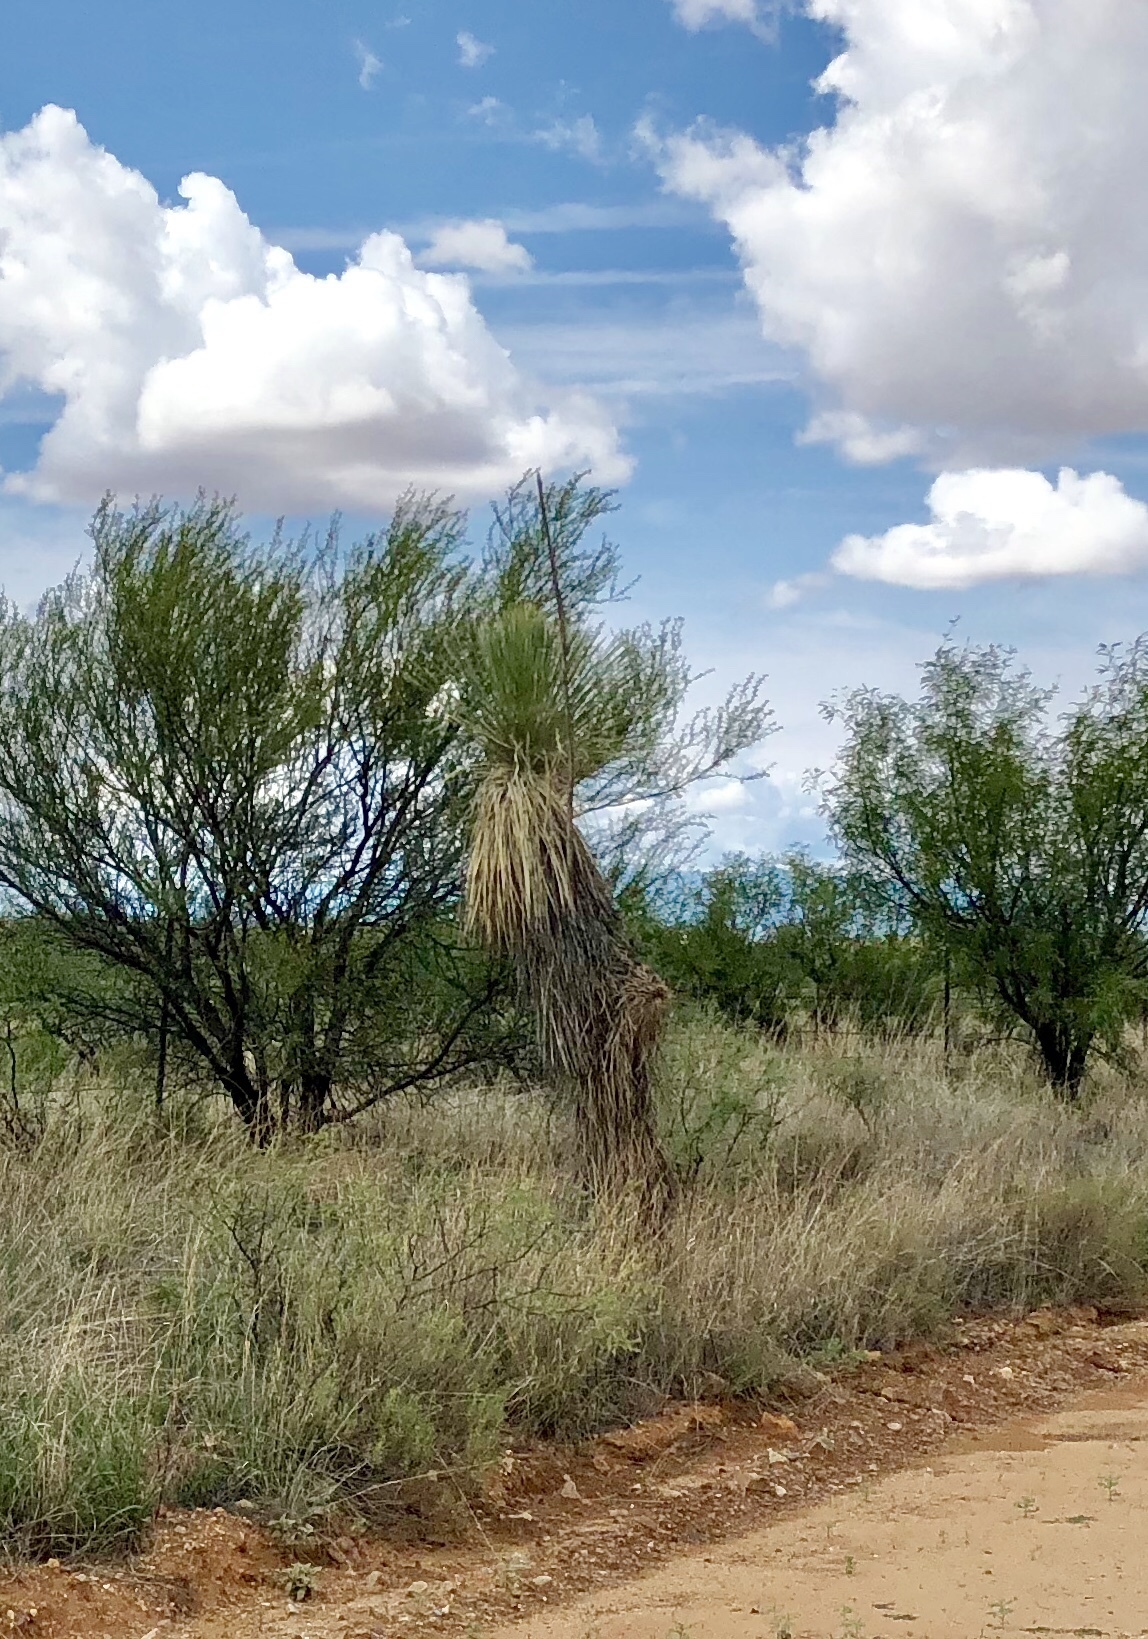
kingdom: Plantae
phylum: Tracheophyta
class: Liliopsida
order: Asparagales
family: Asparagaceae
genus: Yucca
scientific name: Yucca elata
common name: Palmella
